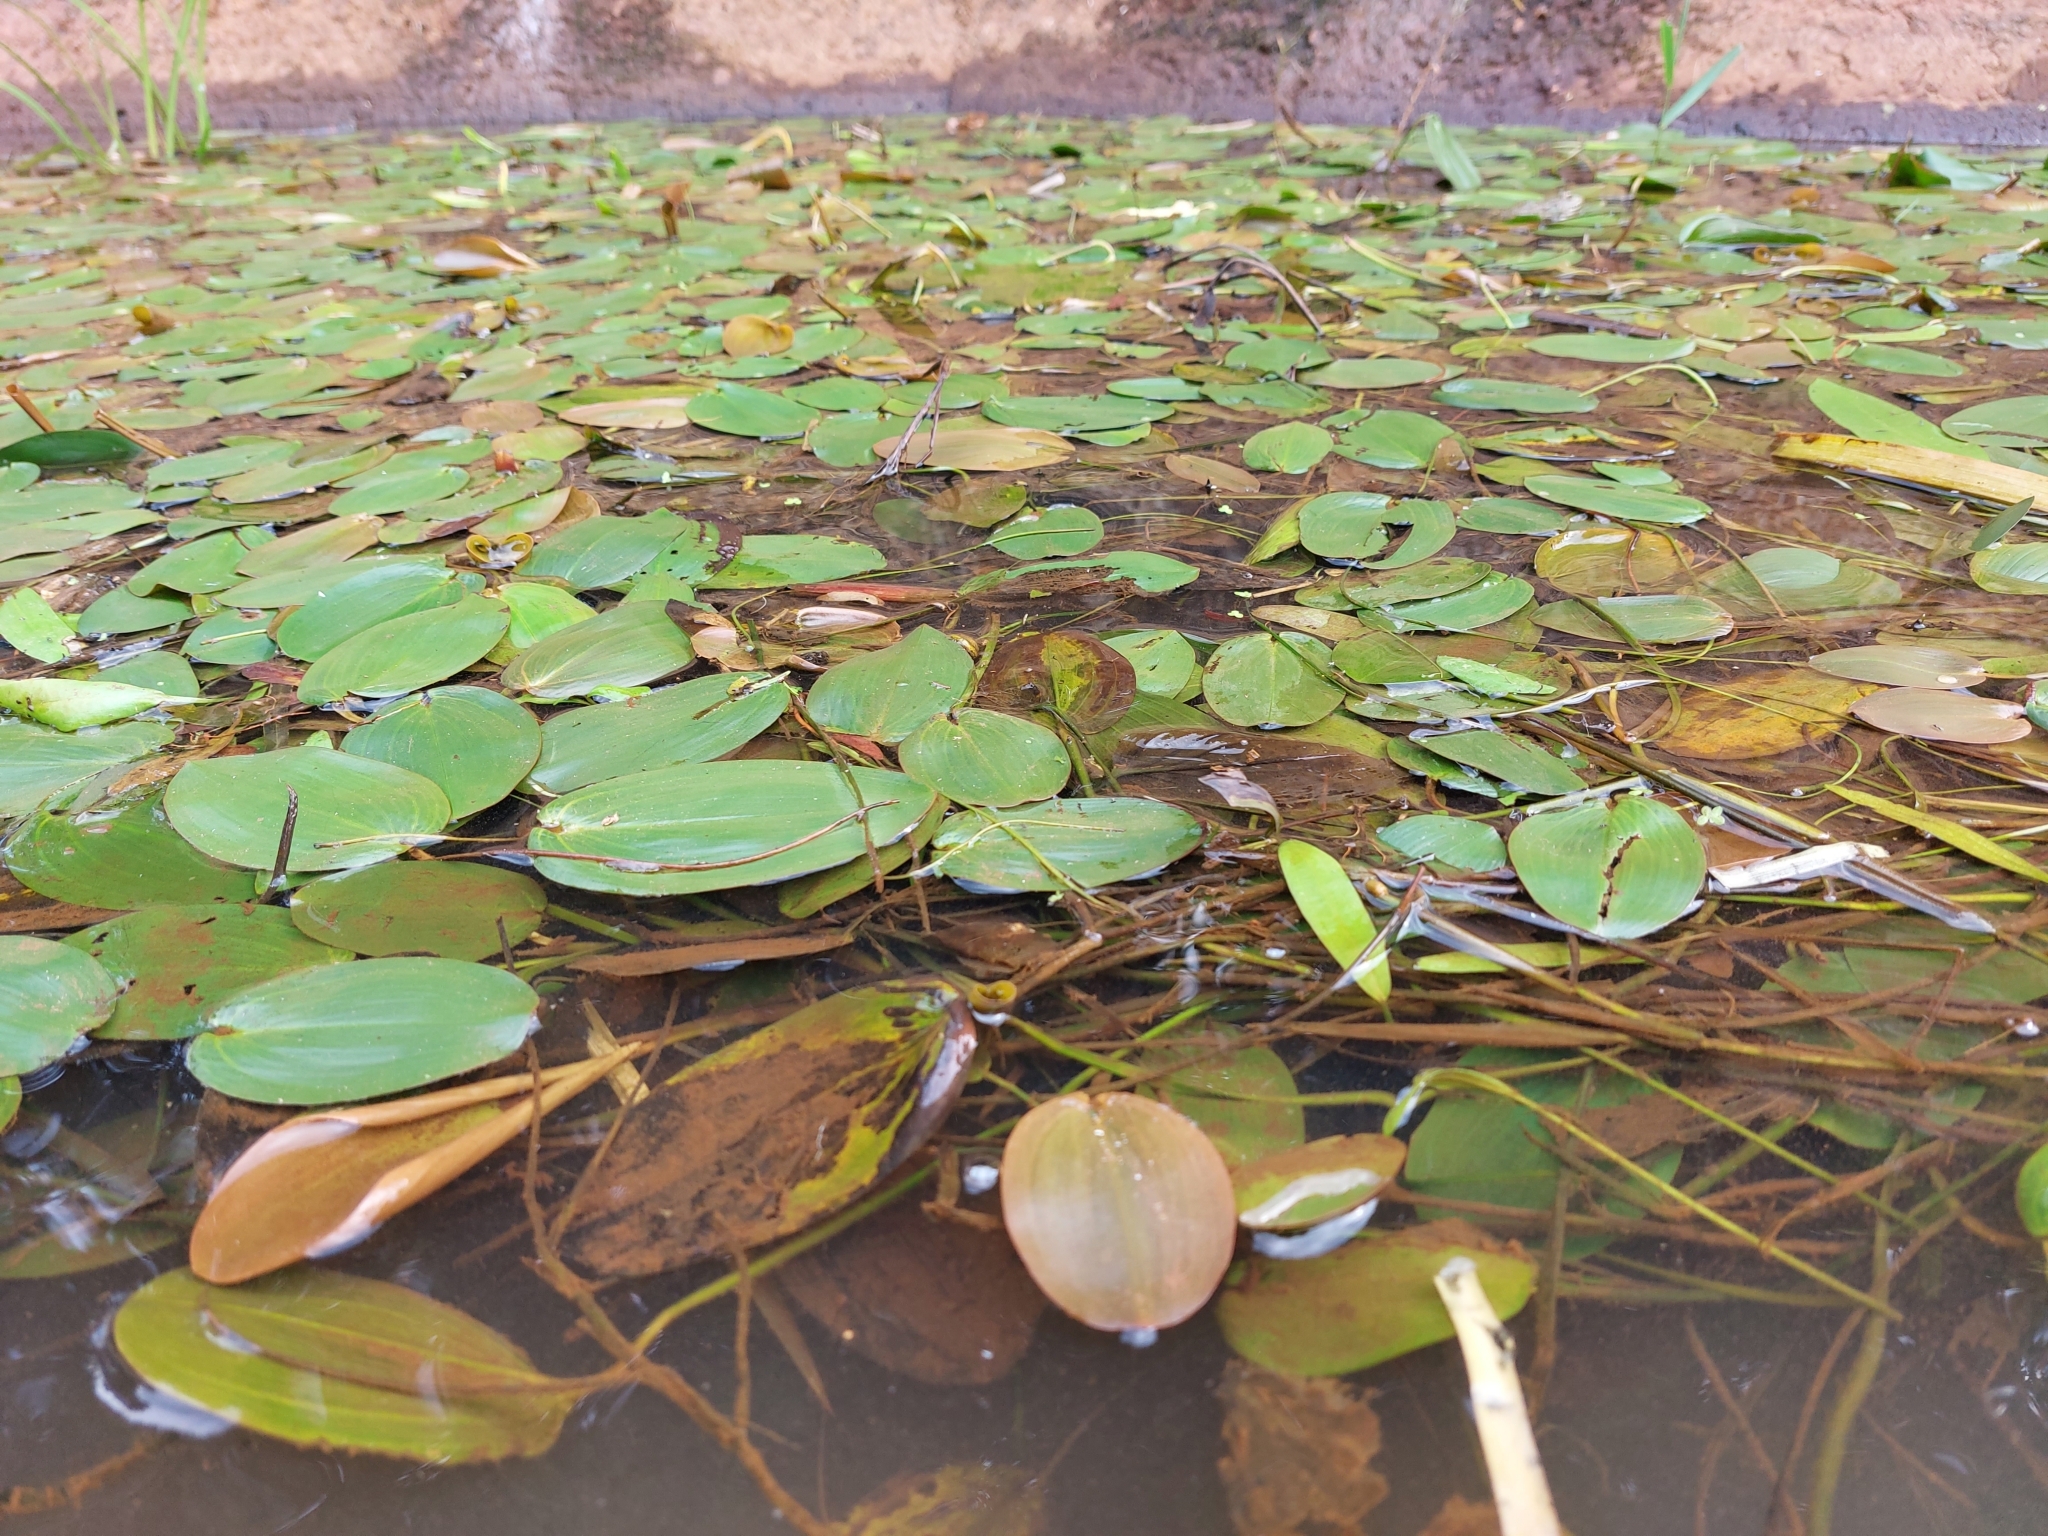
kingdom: Plantae
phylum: Tracheophyta
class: Liliopsida
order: Alismatales
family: Potamogetonaceae
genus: Potamogeton
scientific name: Potamogeton natans
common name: Broad-leaved pondweed
